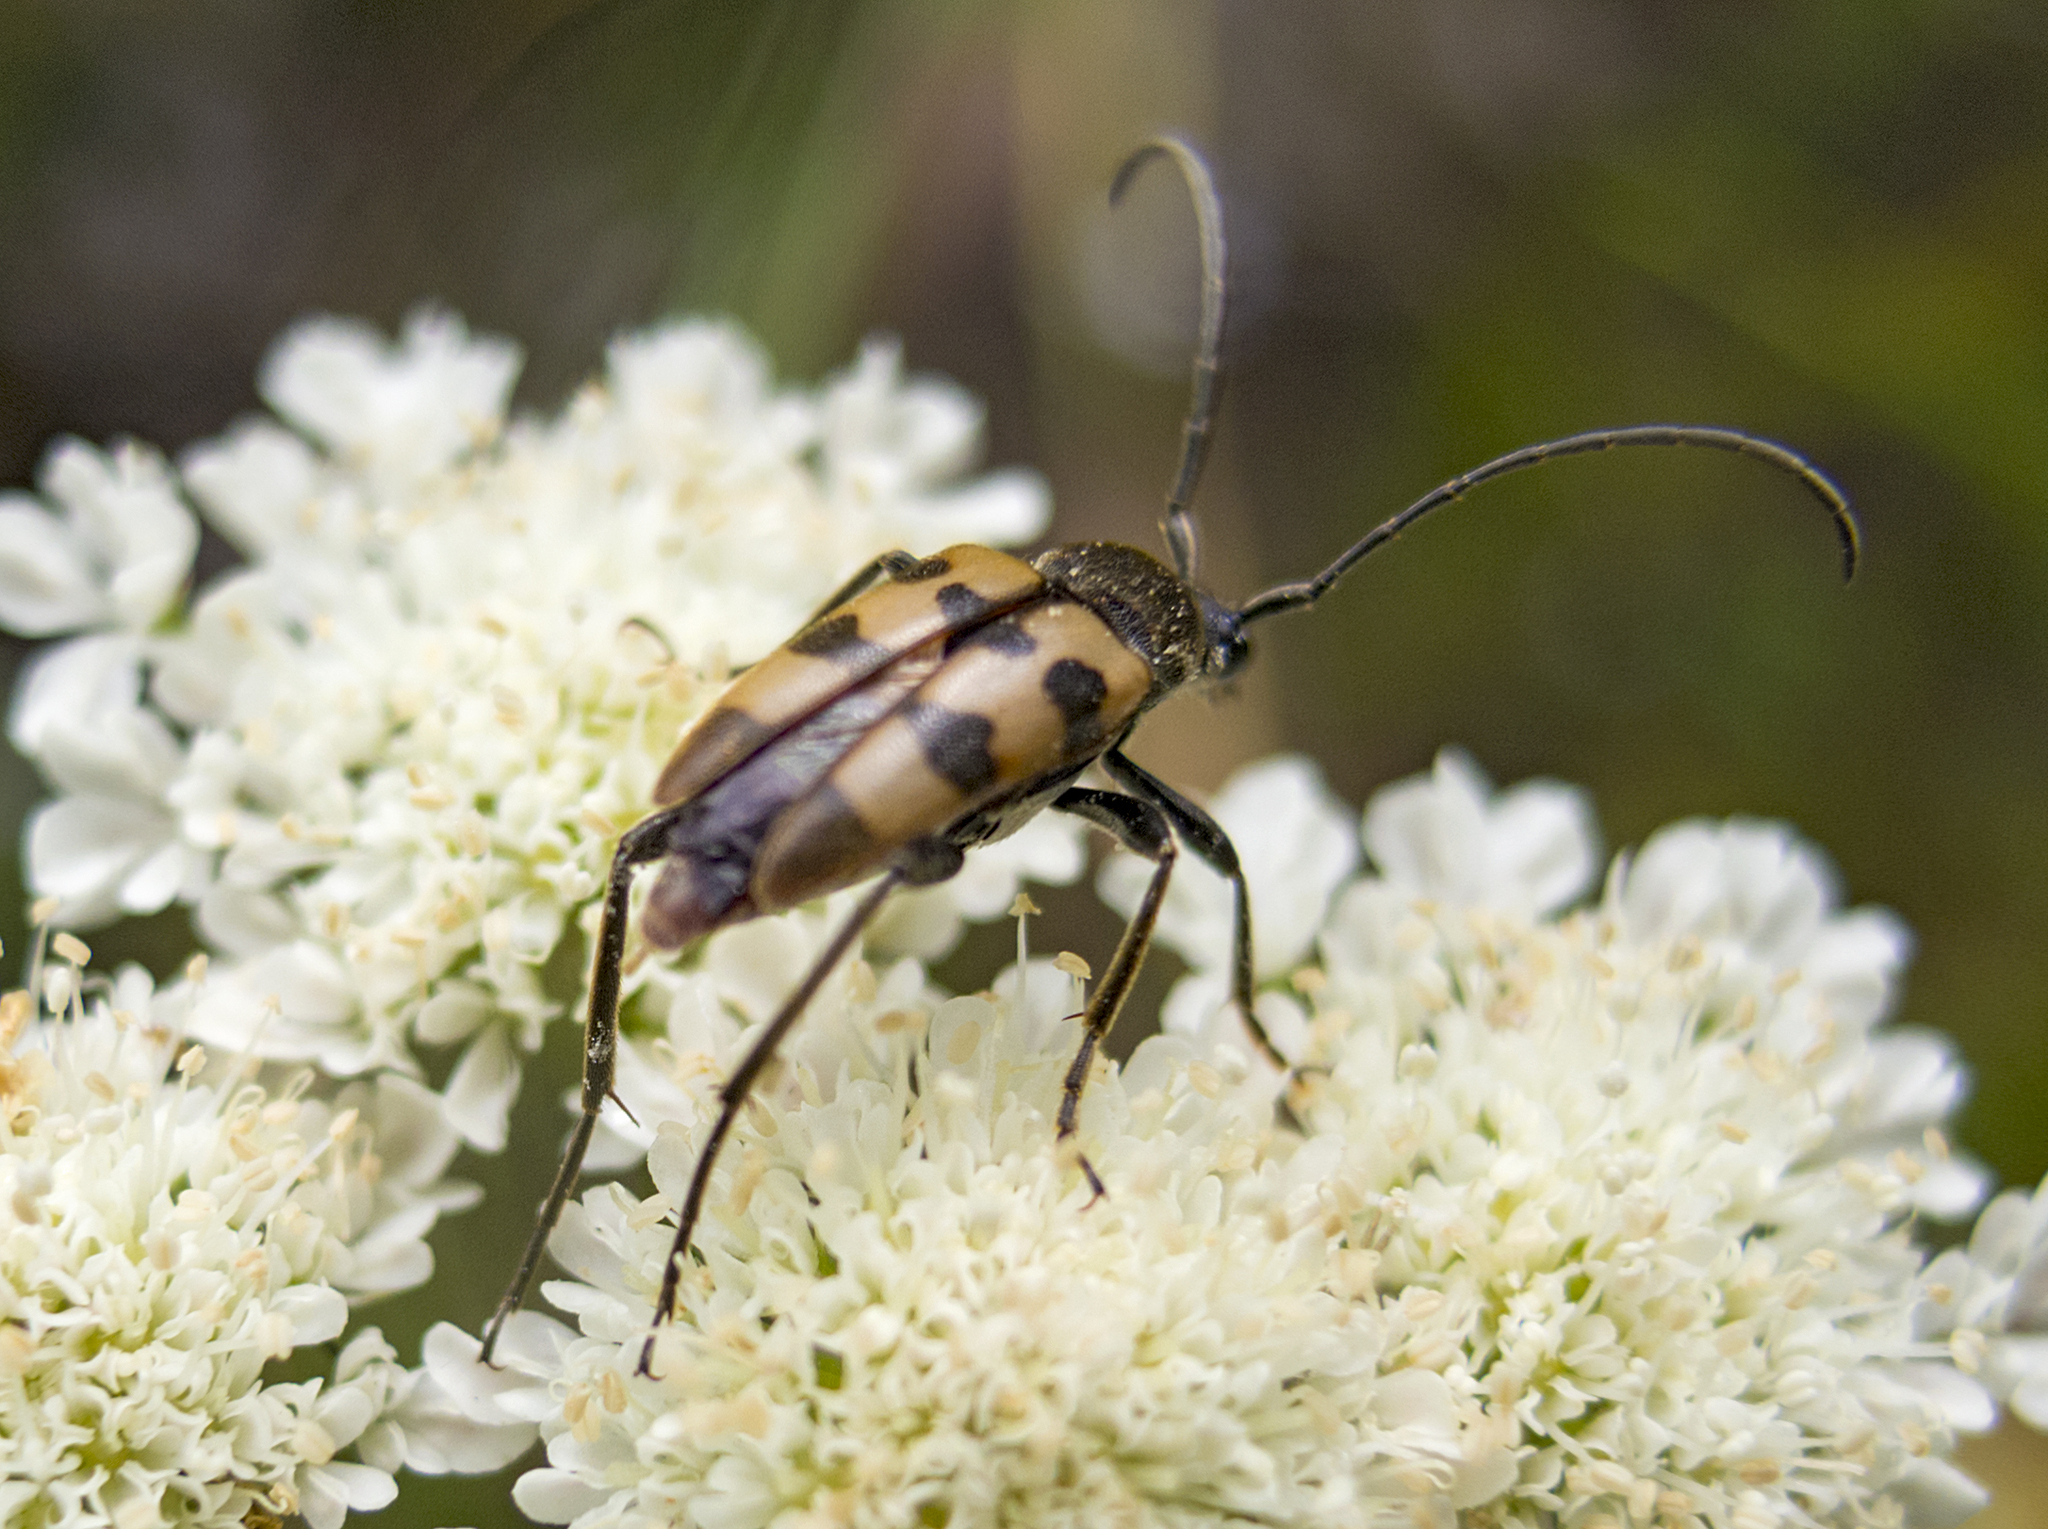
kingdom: Animalia
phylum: Arthropoda
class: Insecta
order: Coleoptera
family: Cerambycidae
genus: Pachytodes
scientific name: Pachytodes
